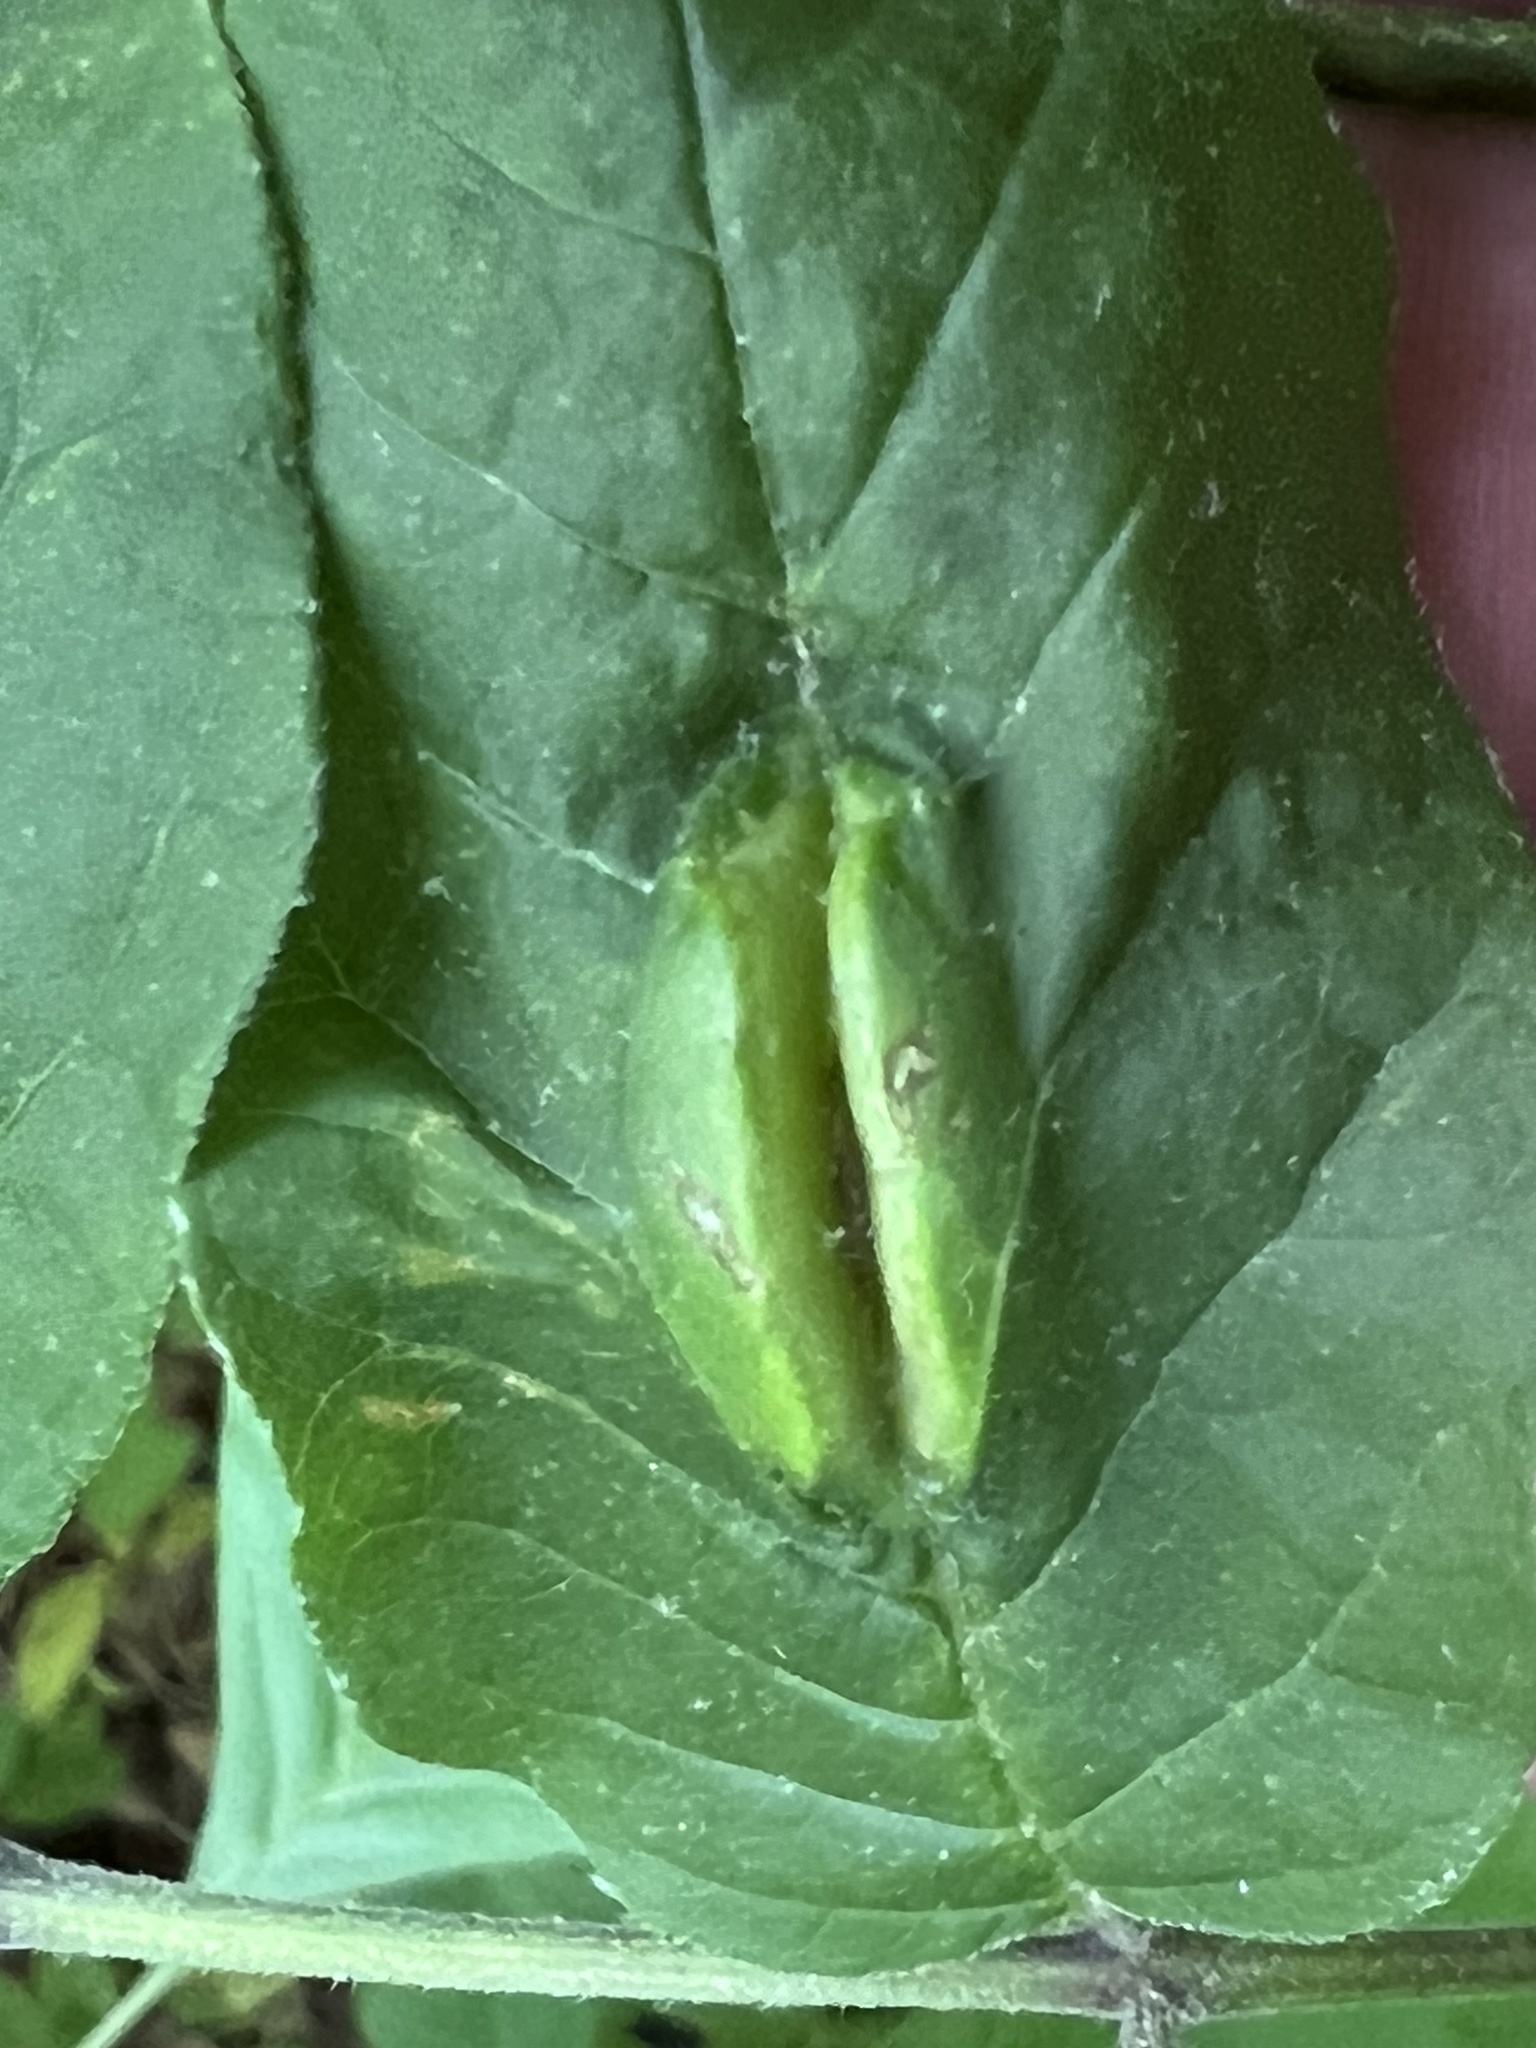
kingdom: Animalia
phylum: Arthropoda
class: Insecta
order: Diptera
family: Cecidomyiidae
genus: Dasineura
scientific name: Dasineura tumidosae
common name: Ash petiole gall midge
